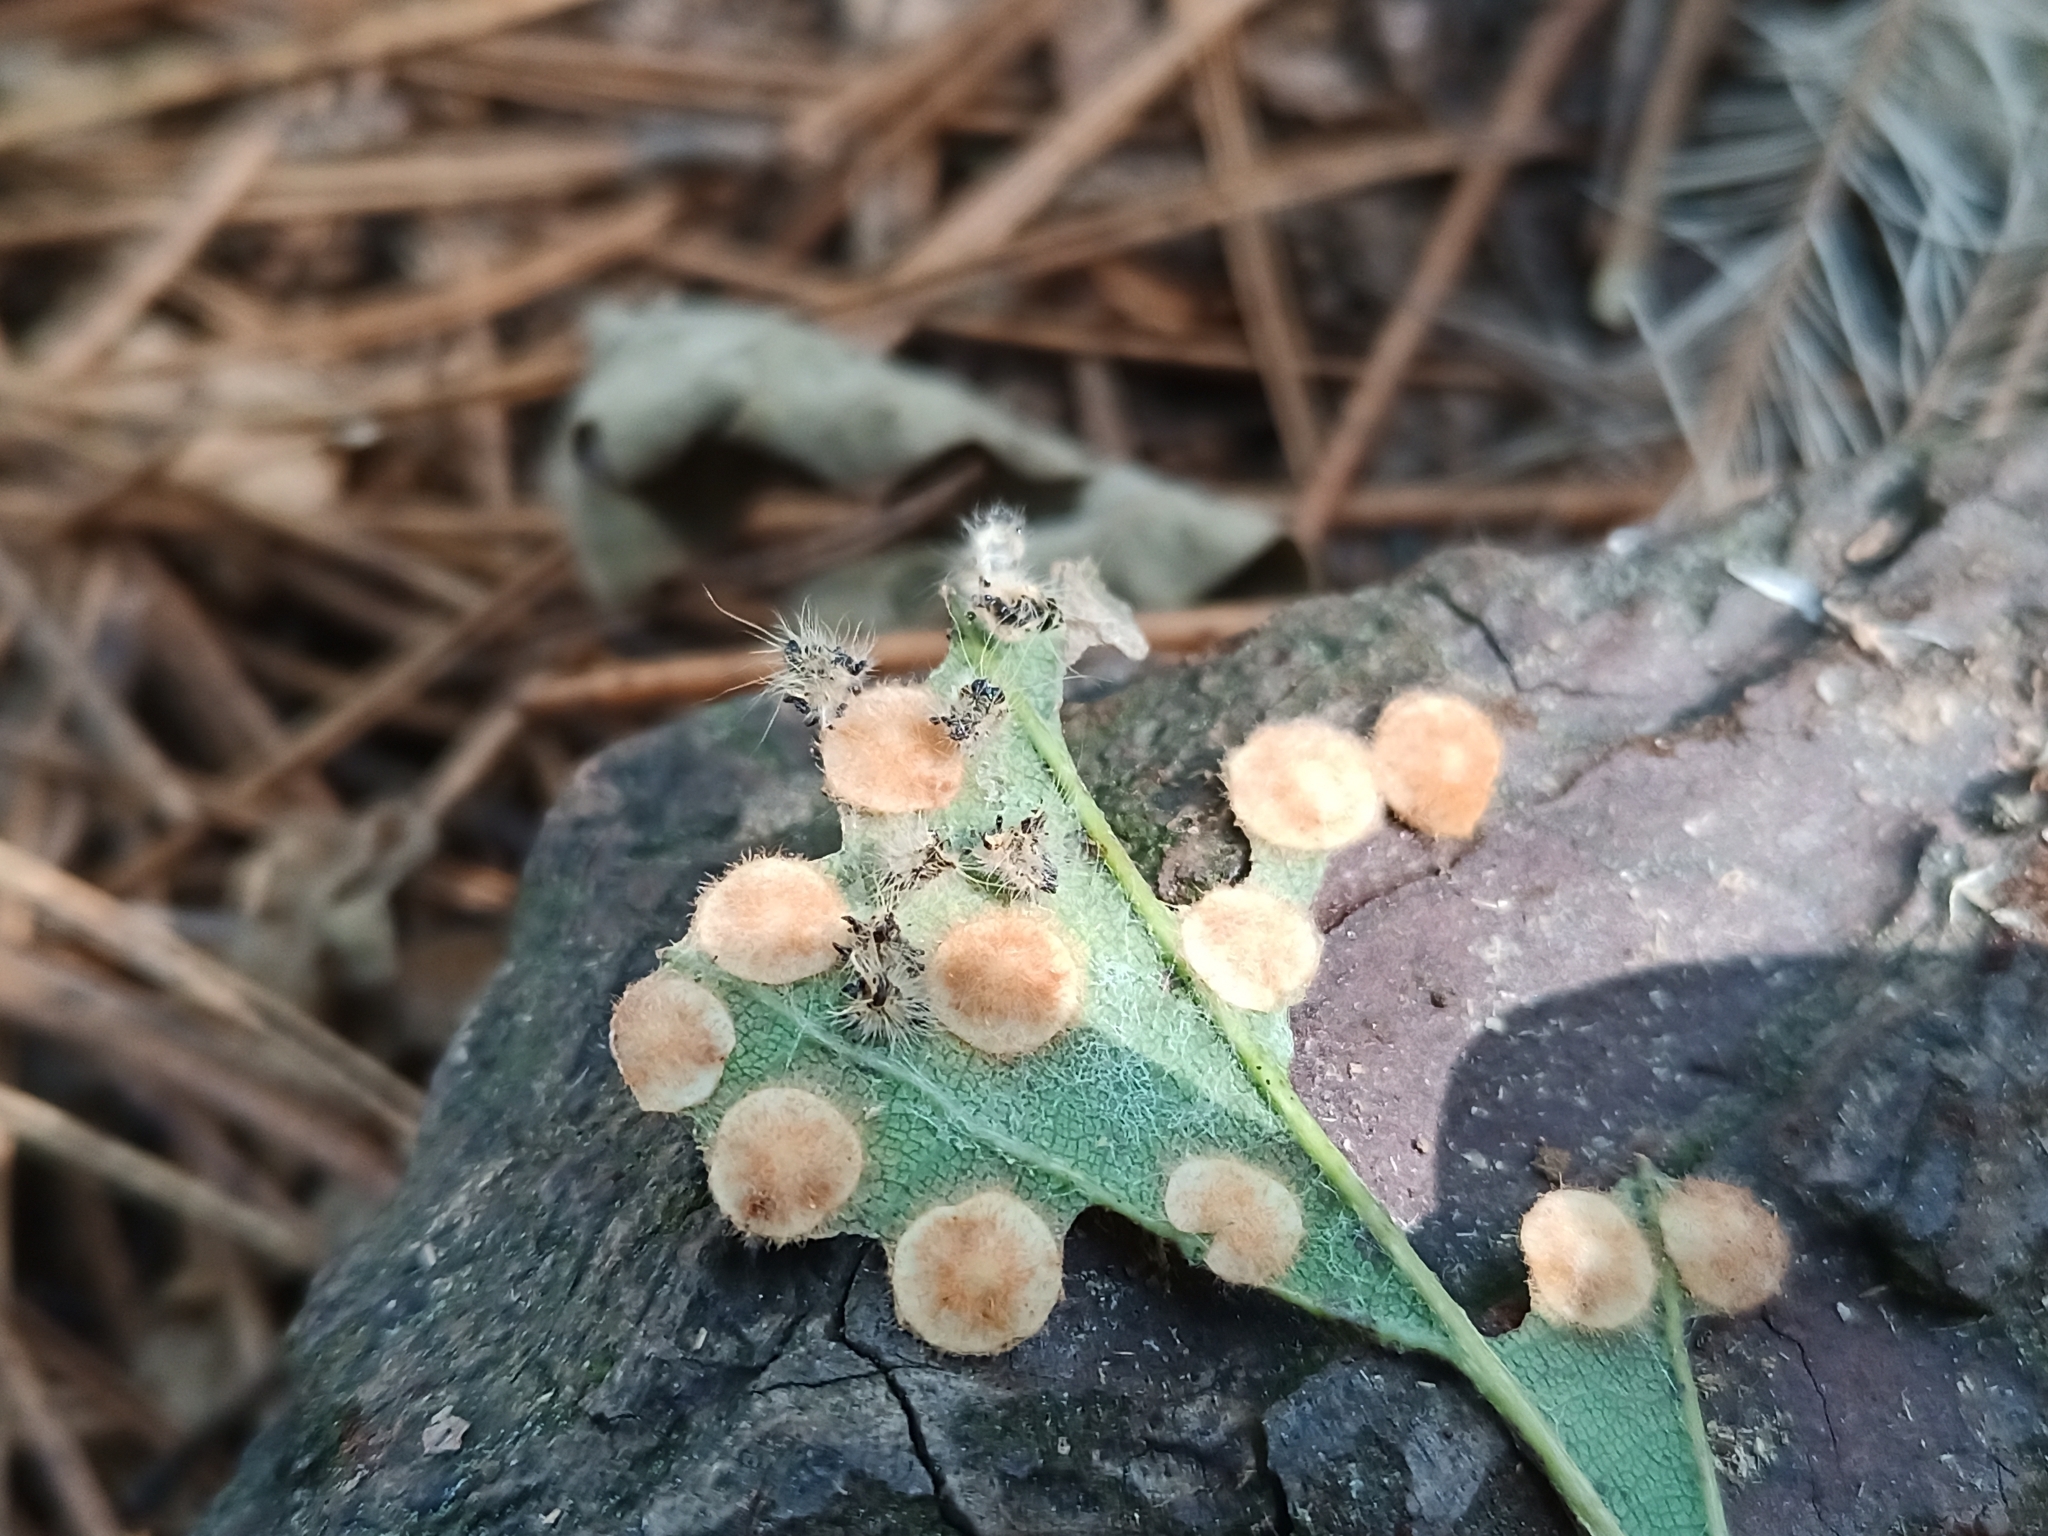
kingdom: Animalia
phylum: Arthropoda
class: Insecta
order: Hymenoptera
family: Cynipidae
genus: Neuroterus
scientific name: Neuroterus quercusbaccarum
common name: Common spangle gall
